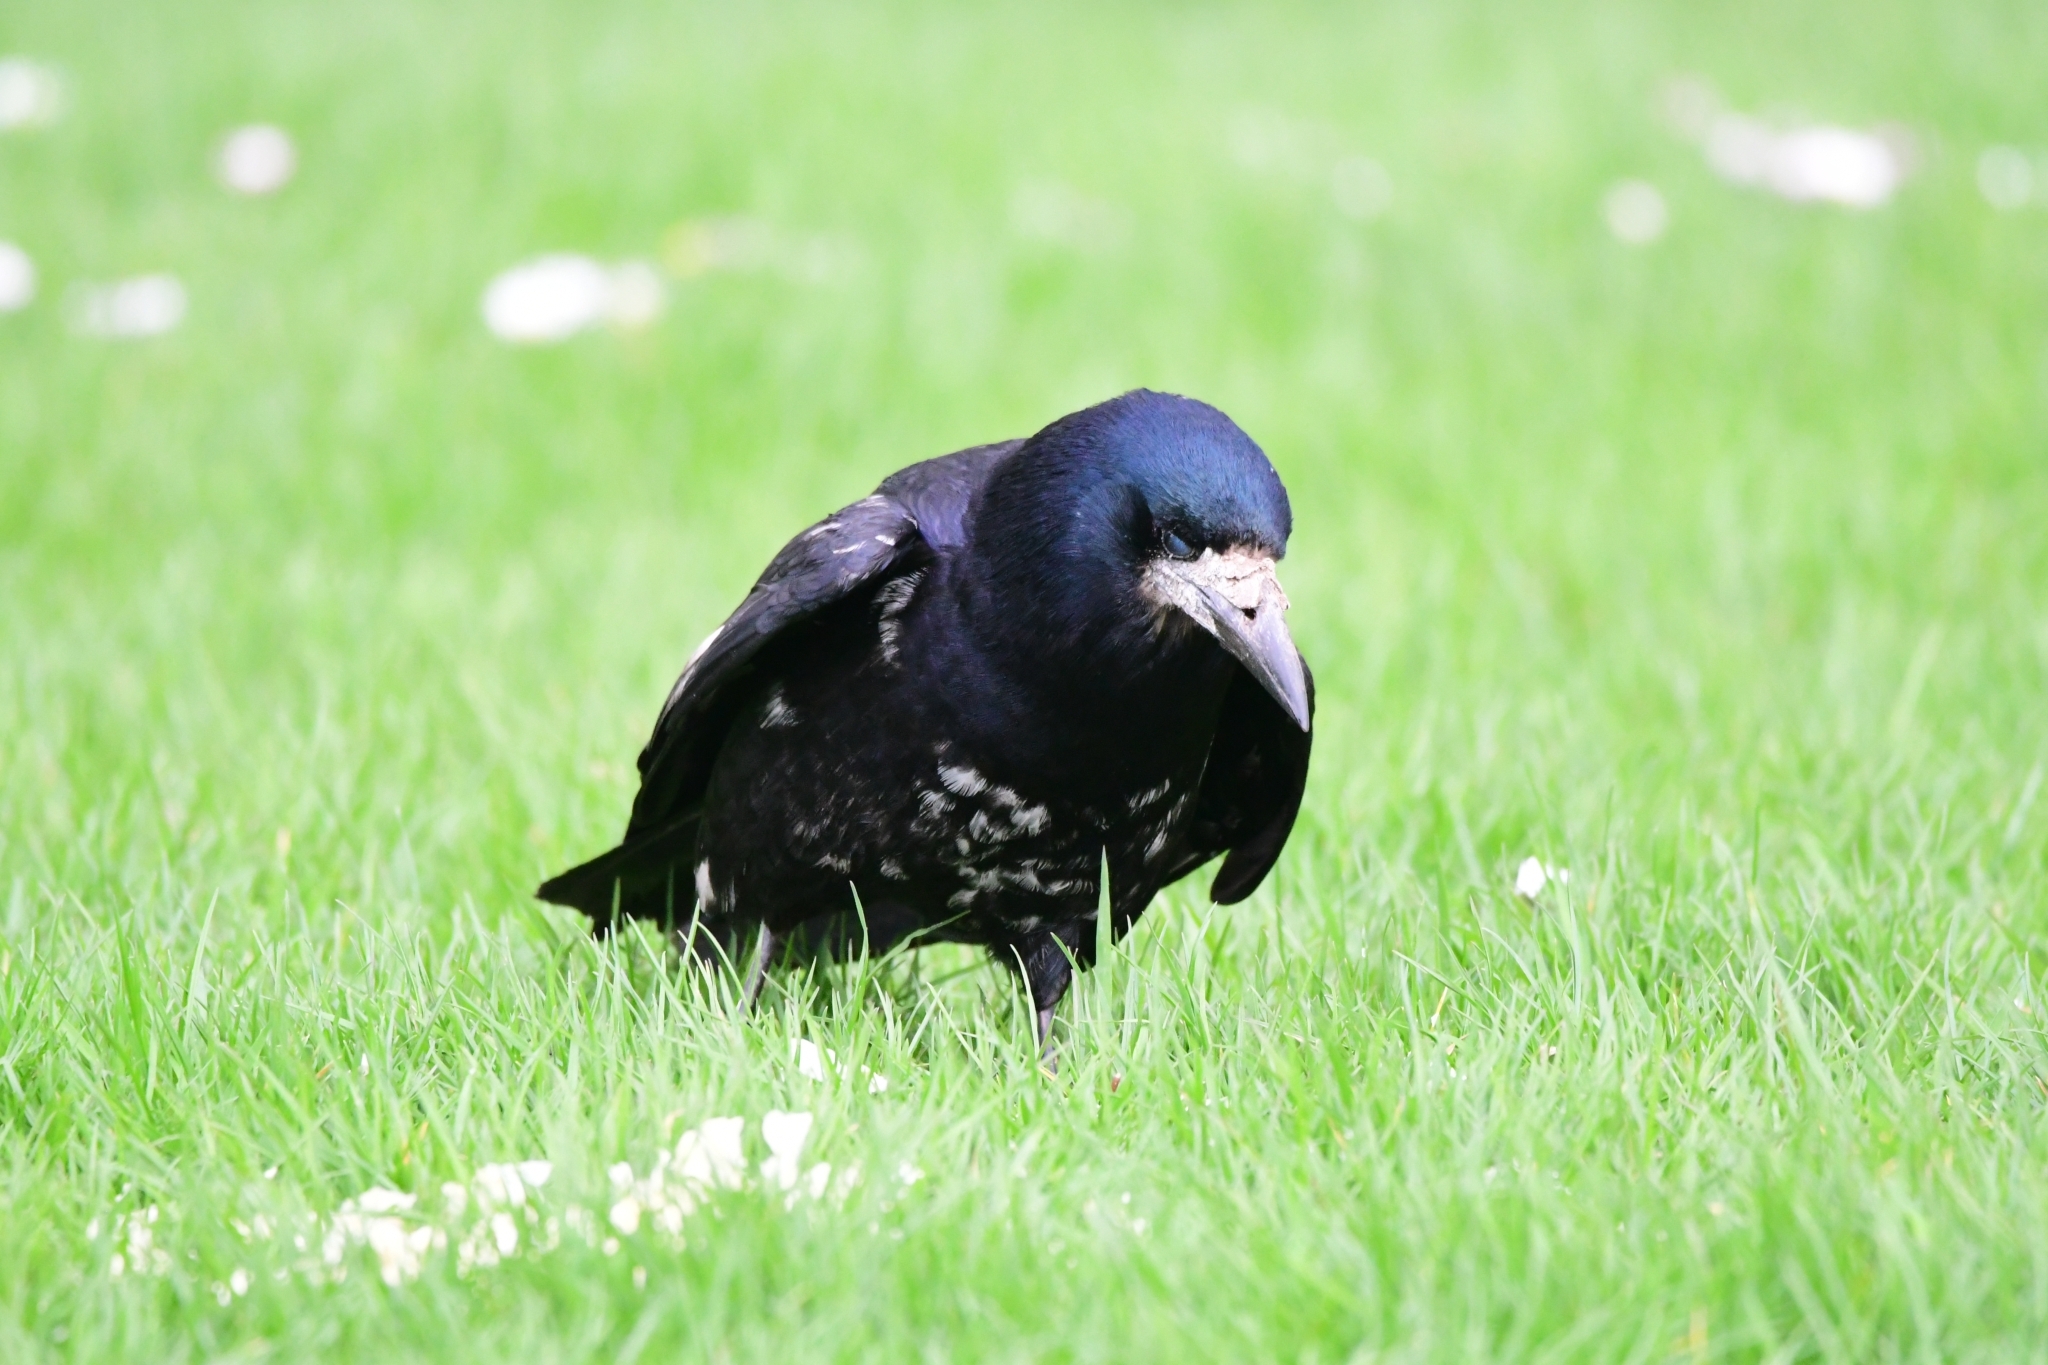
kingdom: Animalia
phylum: Chordata
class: Aves
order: Passeriformes
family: Corvidae
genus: Corvus
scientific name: Corvus frugilegus
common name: Rook
